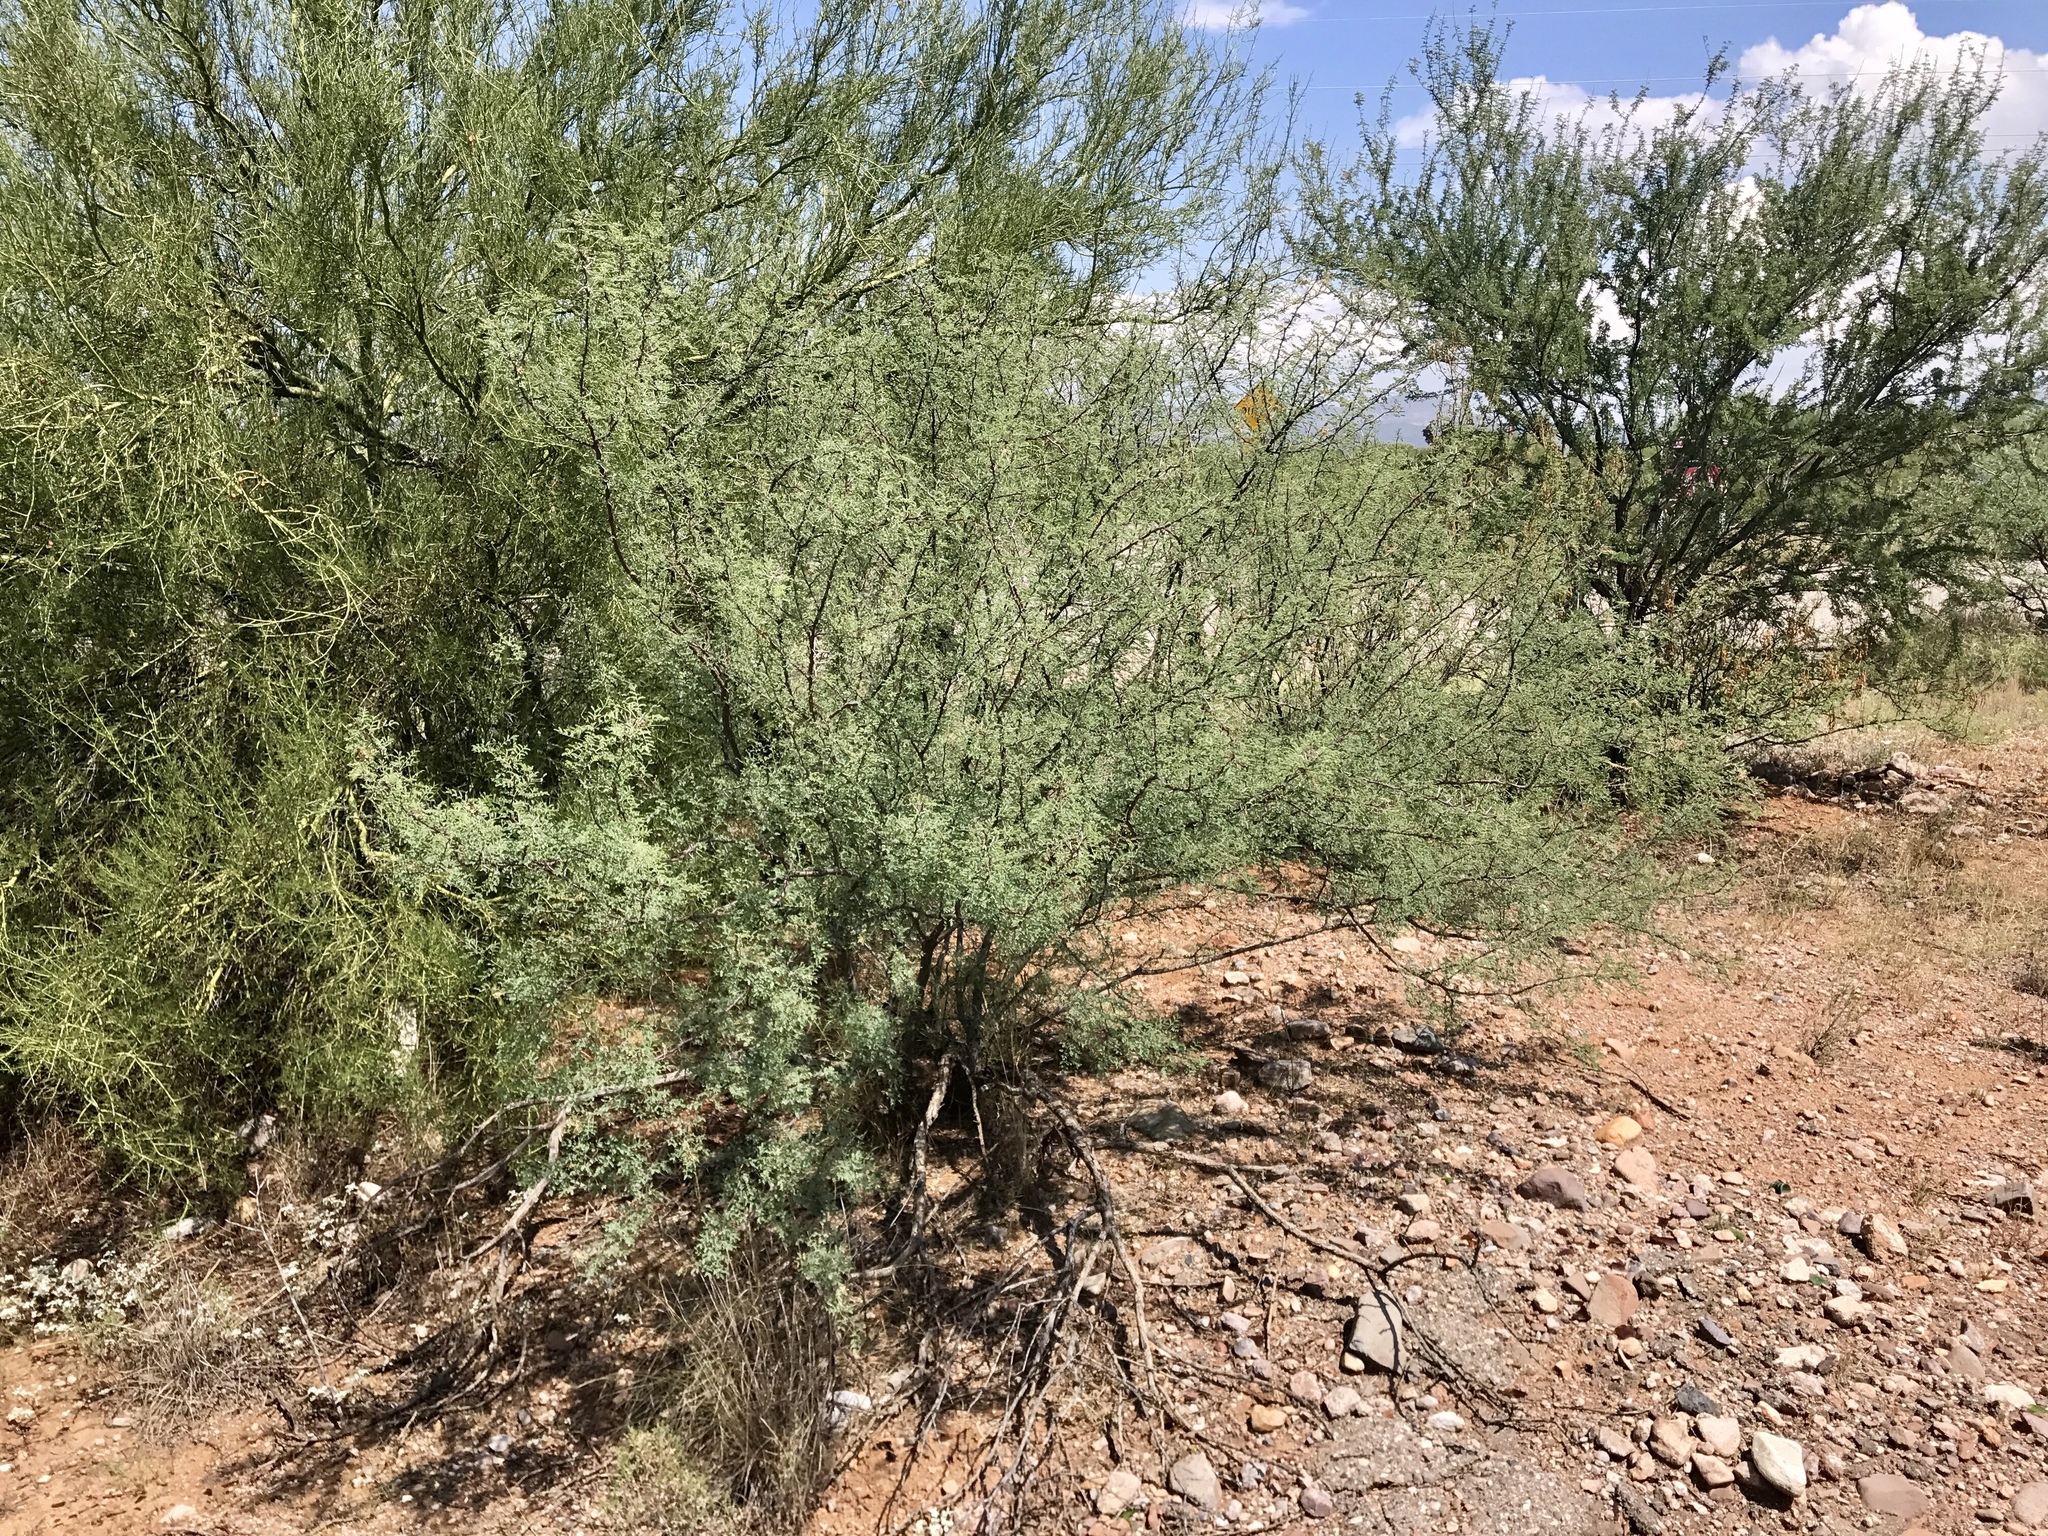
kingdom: Plantae
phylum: Tracheophyta
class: Magnoliopsida
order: Fabales
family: Fabaceae
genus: Vachellia
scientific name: Vachellia constricta
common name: Mescat acacia
